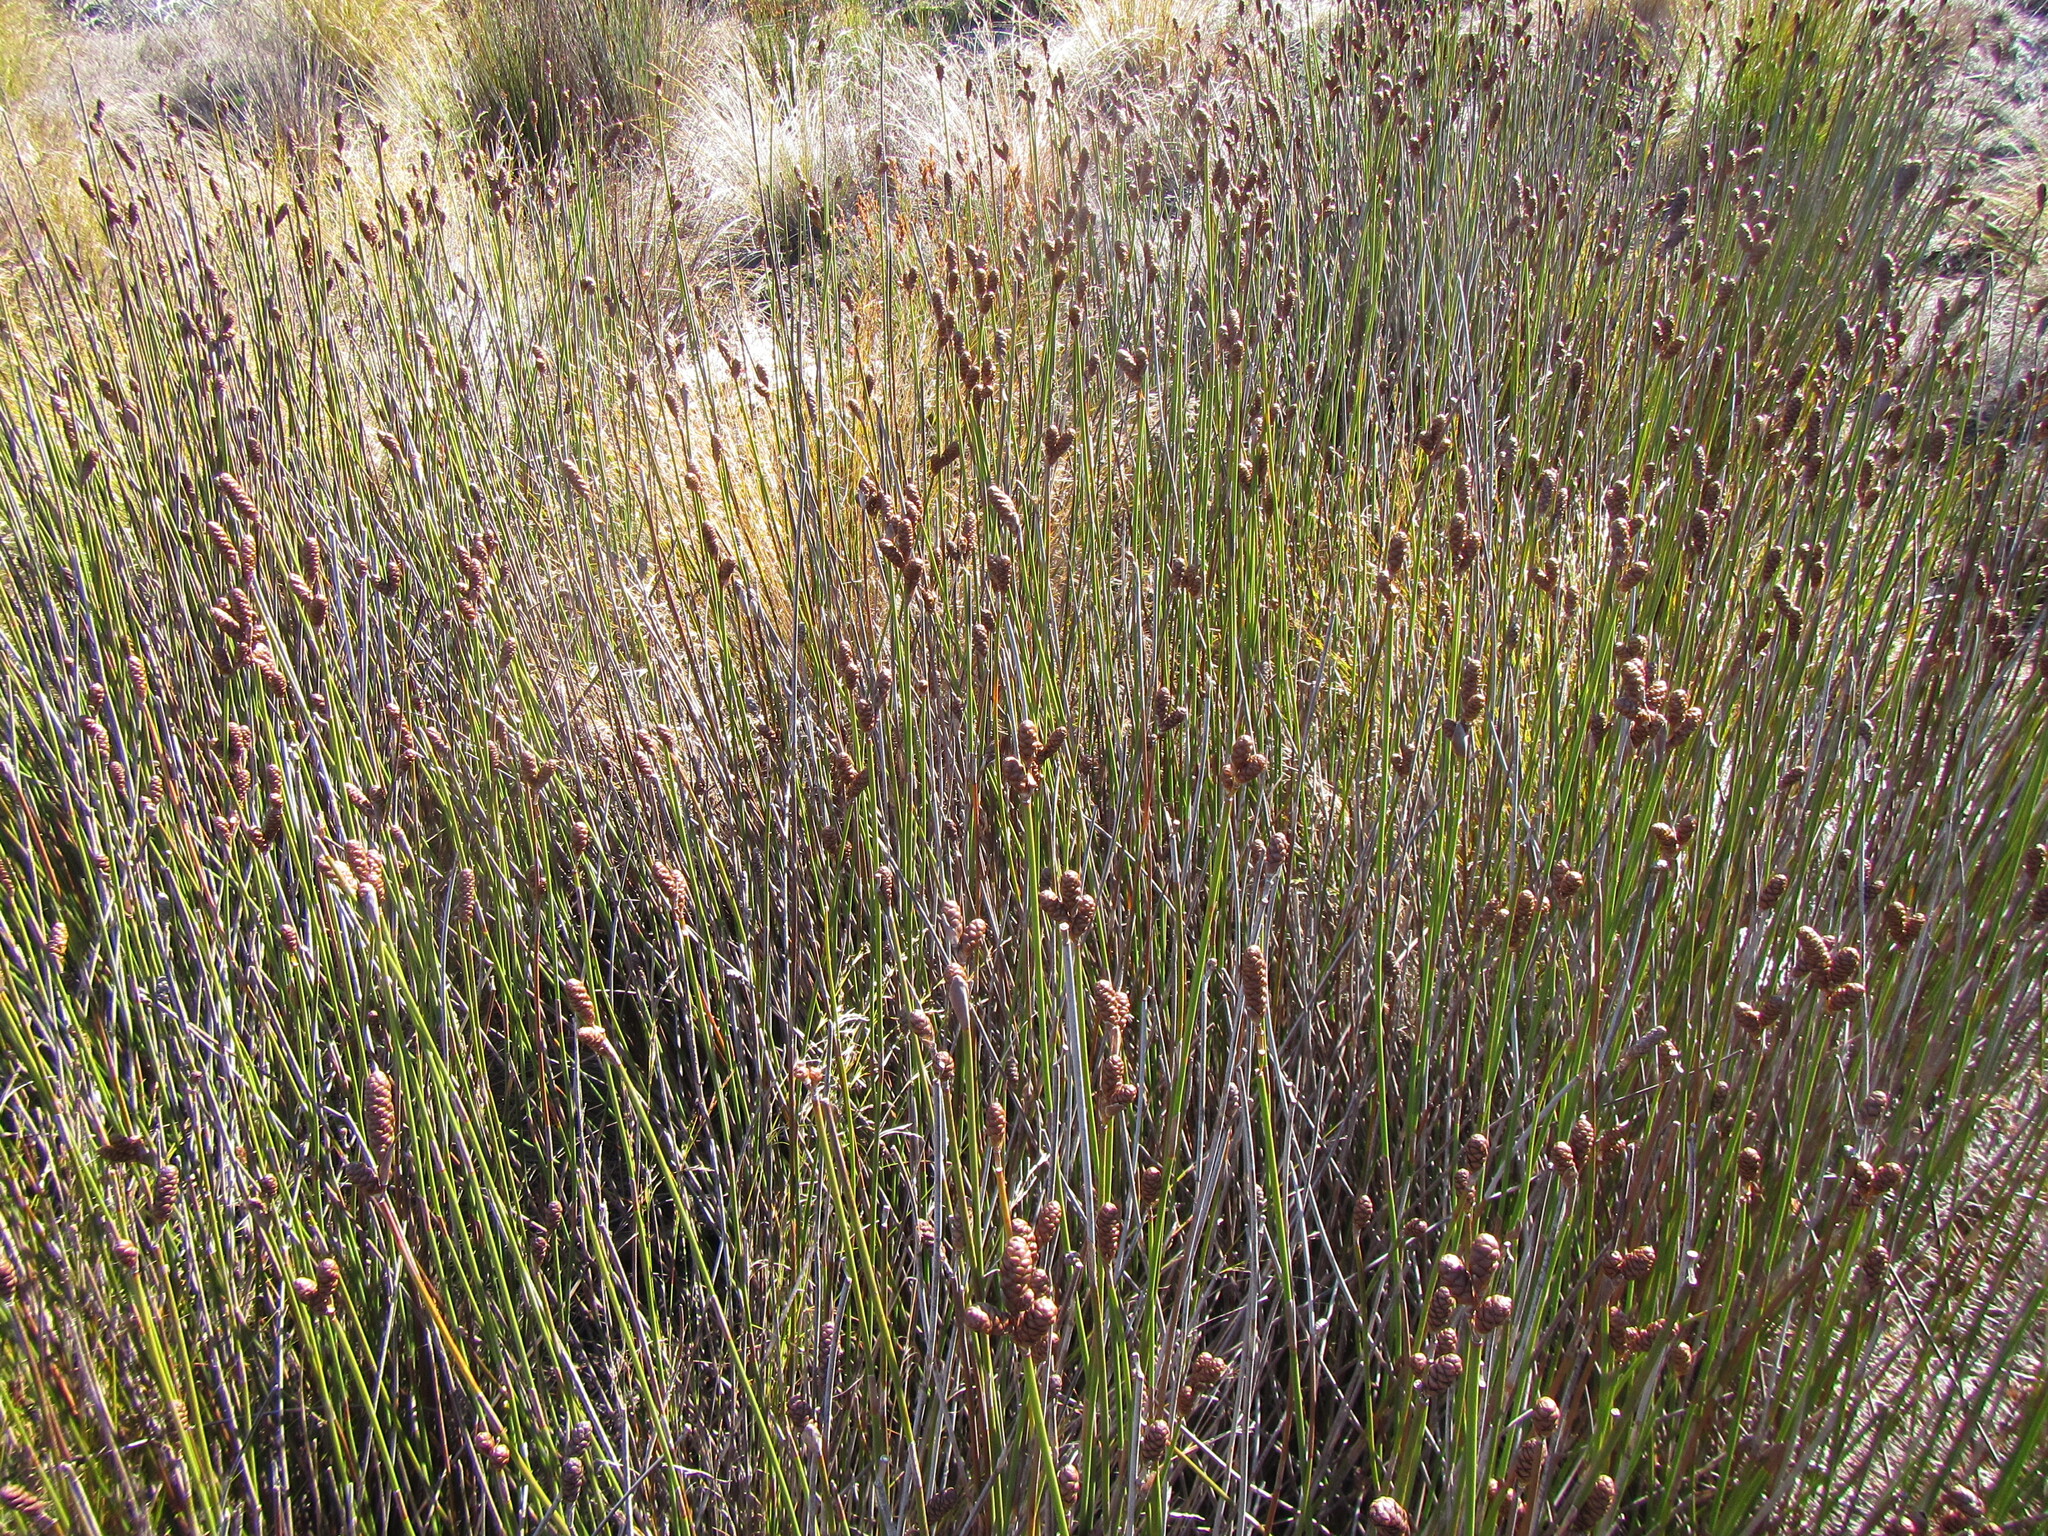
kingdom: Plantae
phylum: Tracheophyta
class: Liliopsida
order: Poales
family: Restionaceae
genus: Nevillea
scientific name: Nevillea obtusissimus
